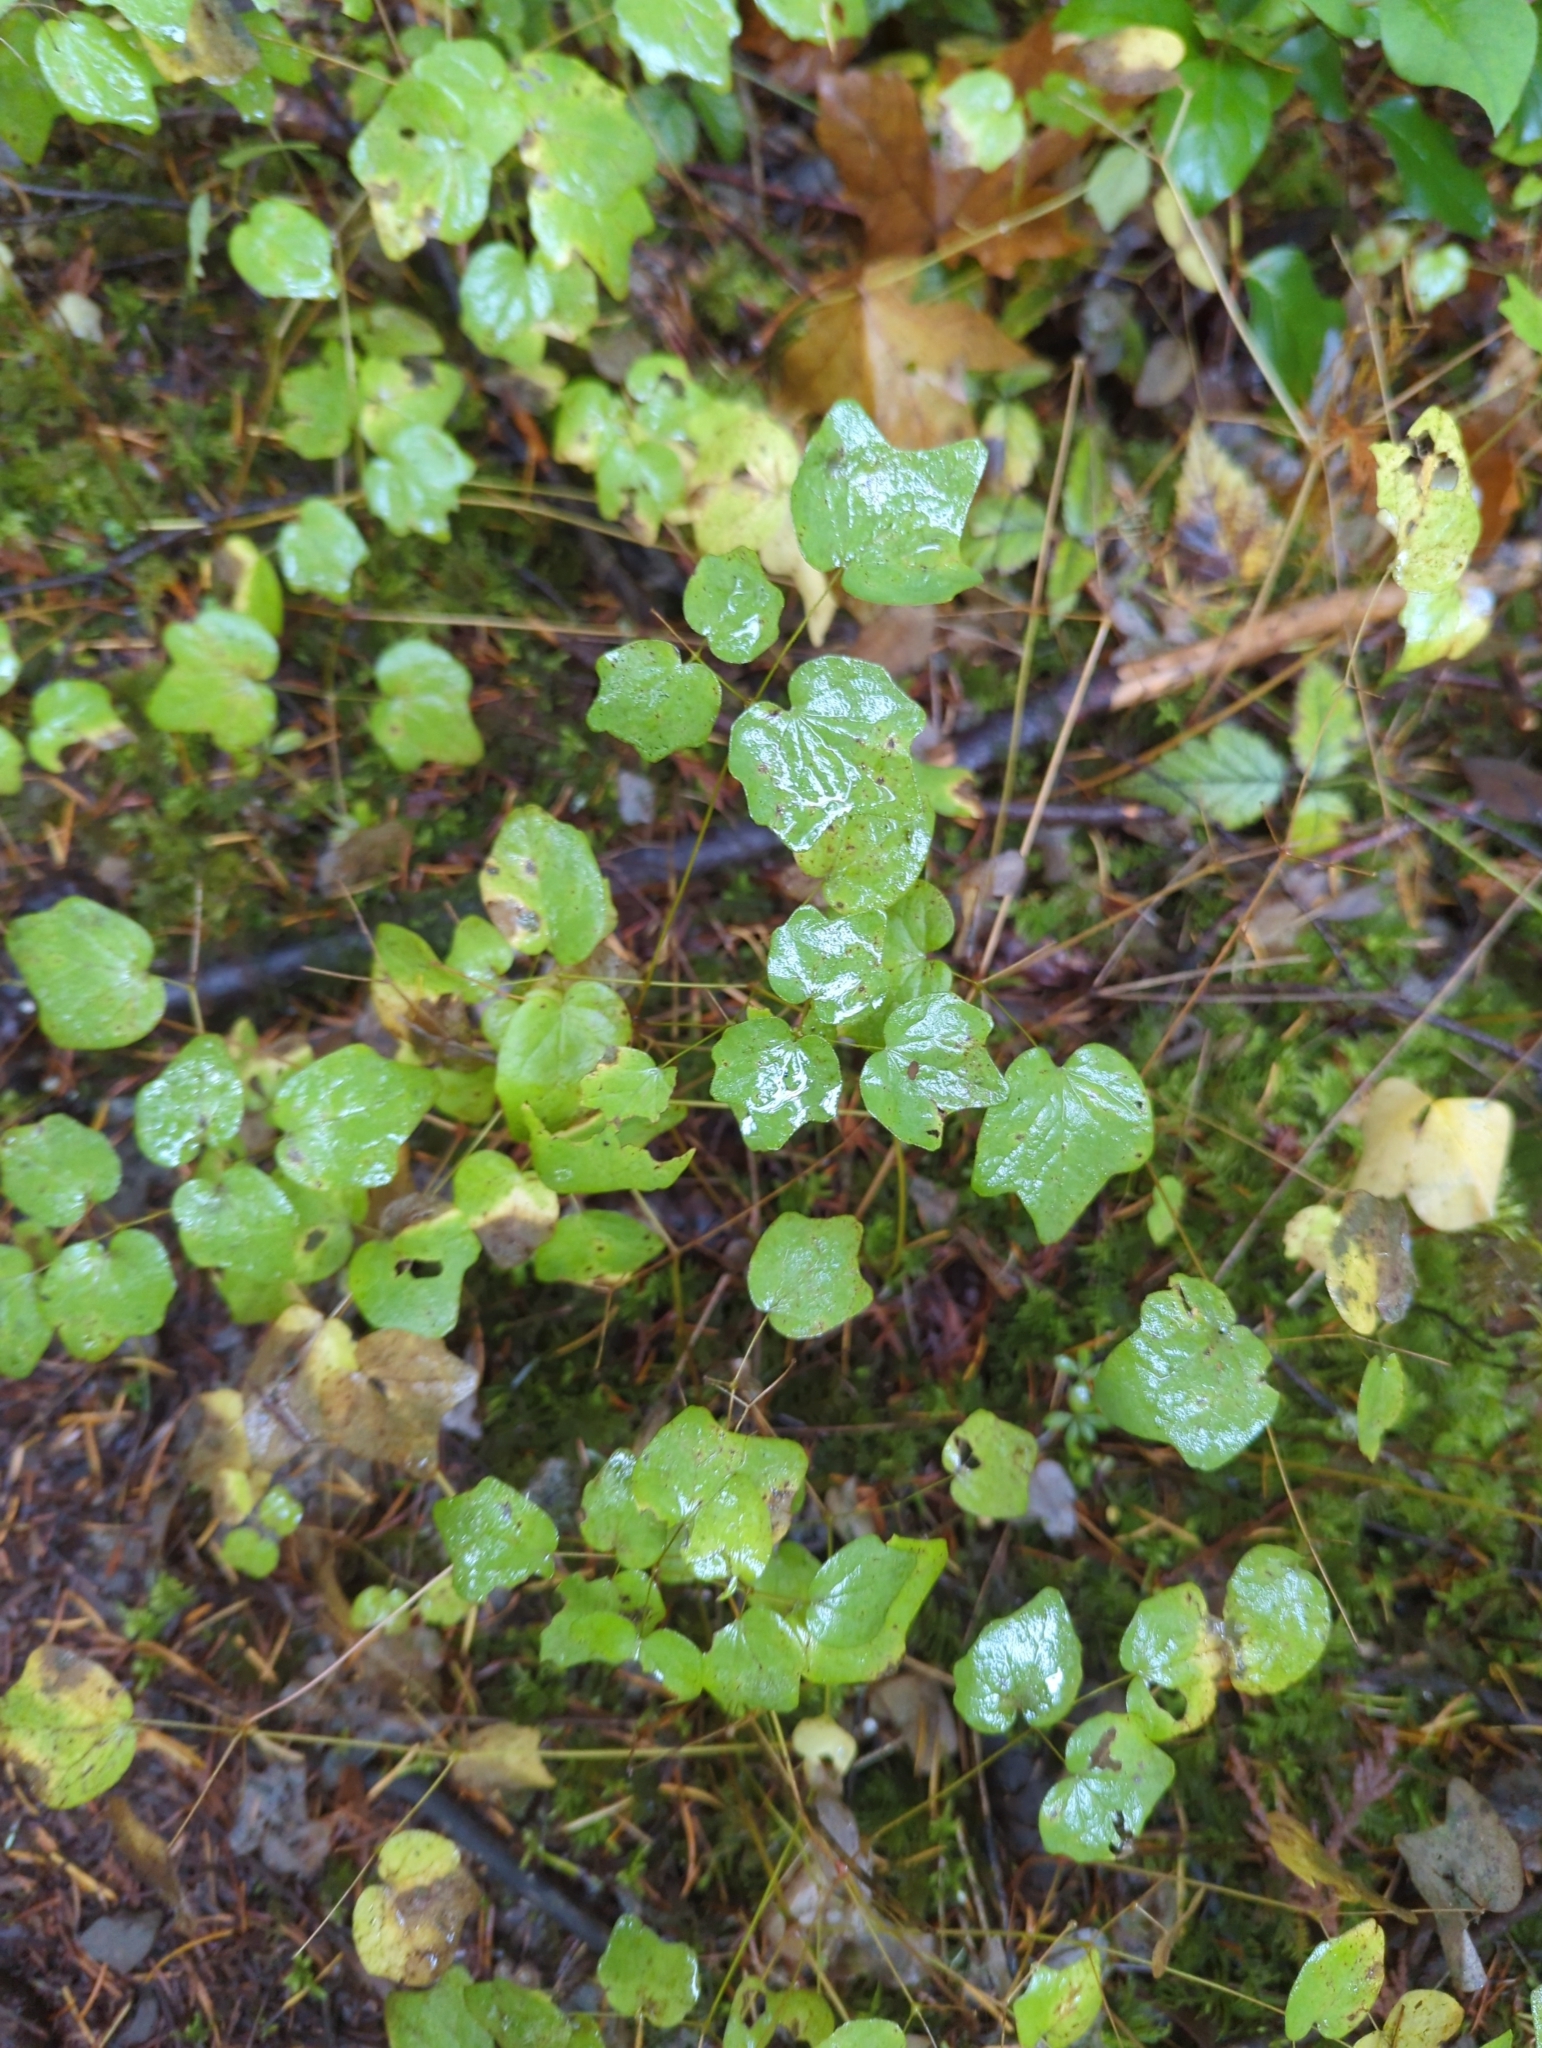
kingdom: Plantae
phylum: Tracheophyta
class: Magnoliopsida
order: Ranunculales
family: Berberidaceae
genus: Vancouveria
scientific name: Vancouveria hexandra
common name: Northern inside-out-flower
